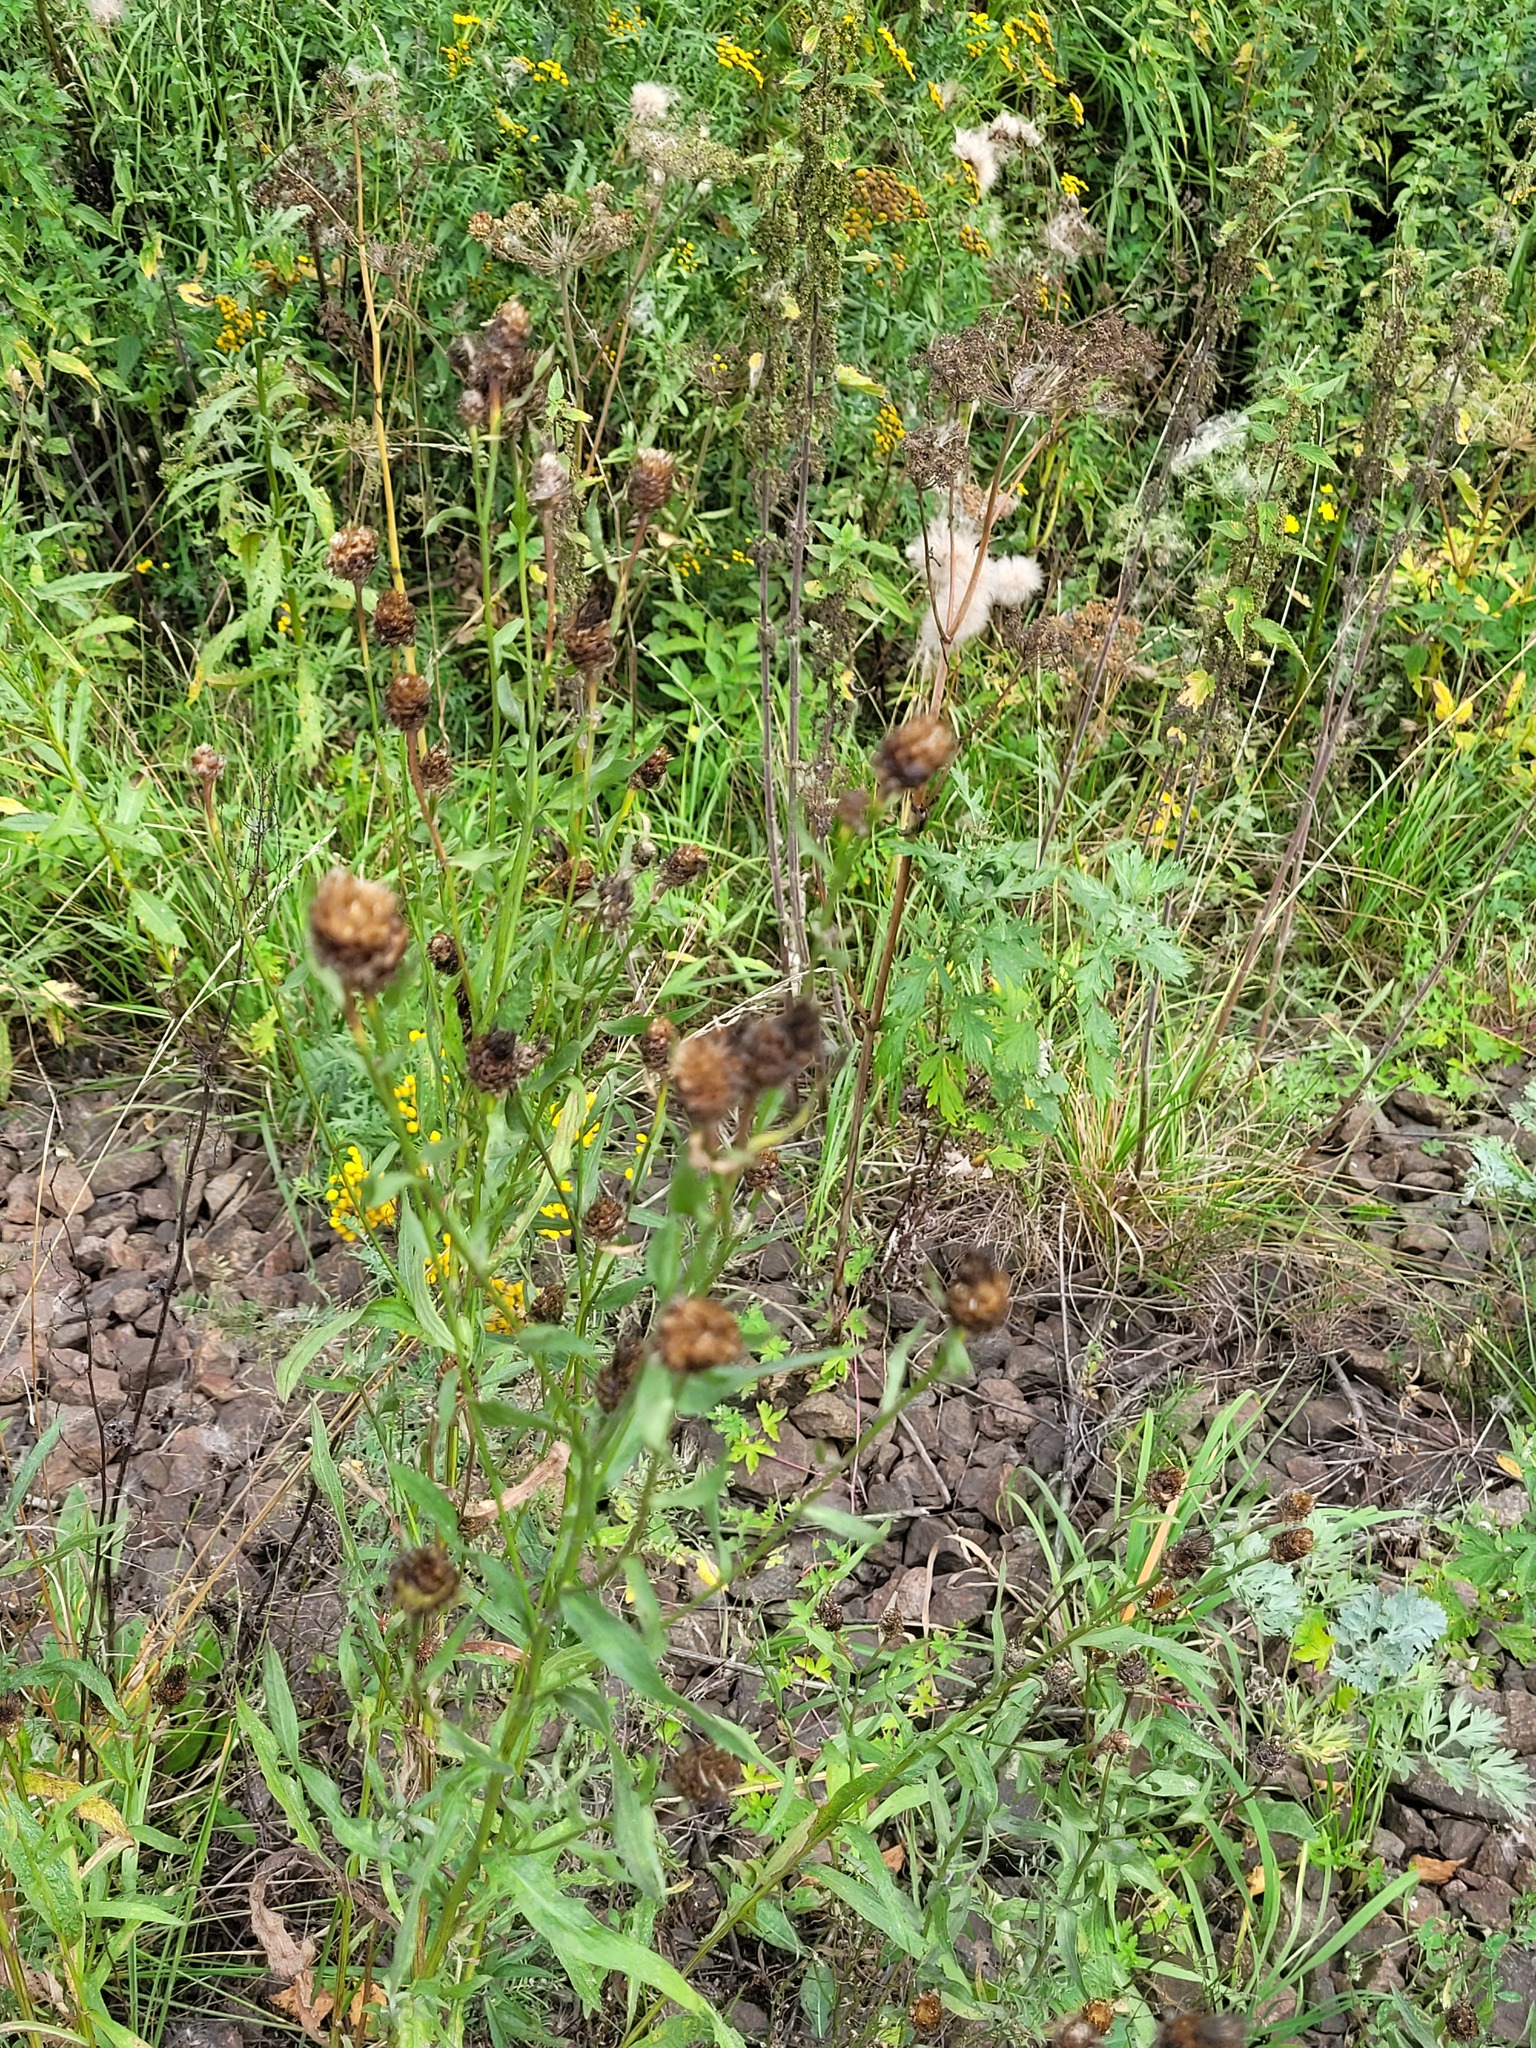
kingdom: Plantae
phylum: Tracheophyta
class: Magnoliopsida
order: Asterales
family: Asteraceae
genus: Centaurea
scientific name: Centaurea jacea
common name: Brown knapweed
